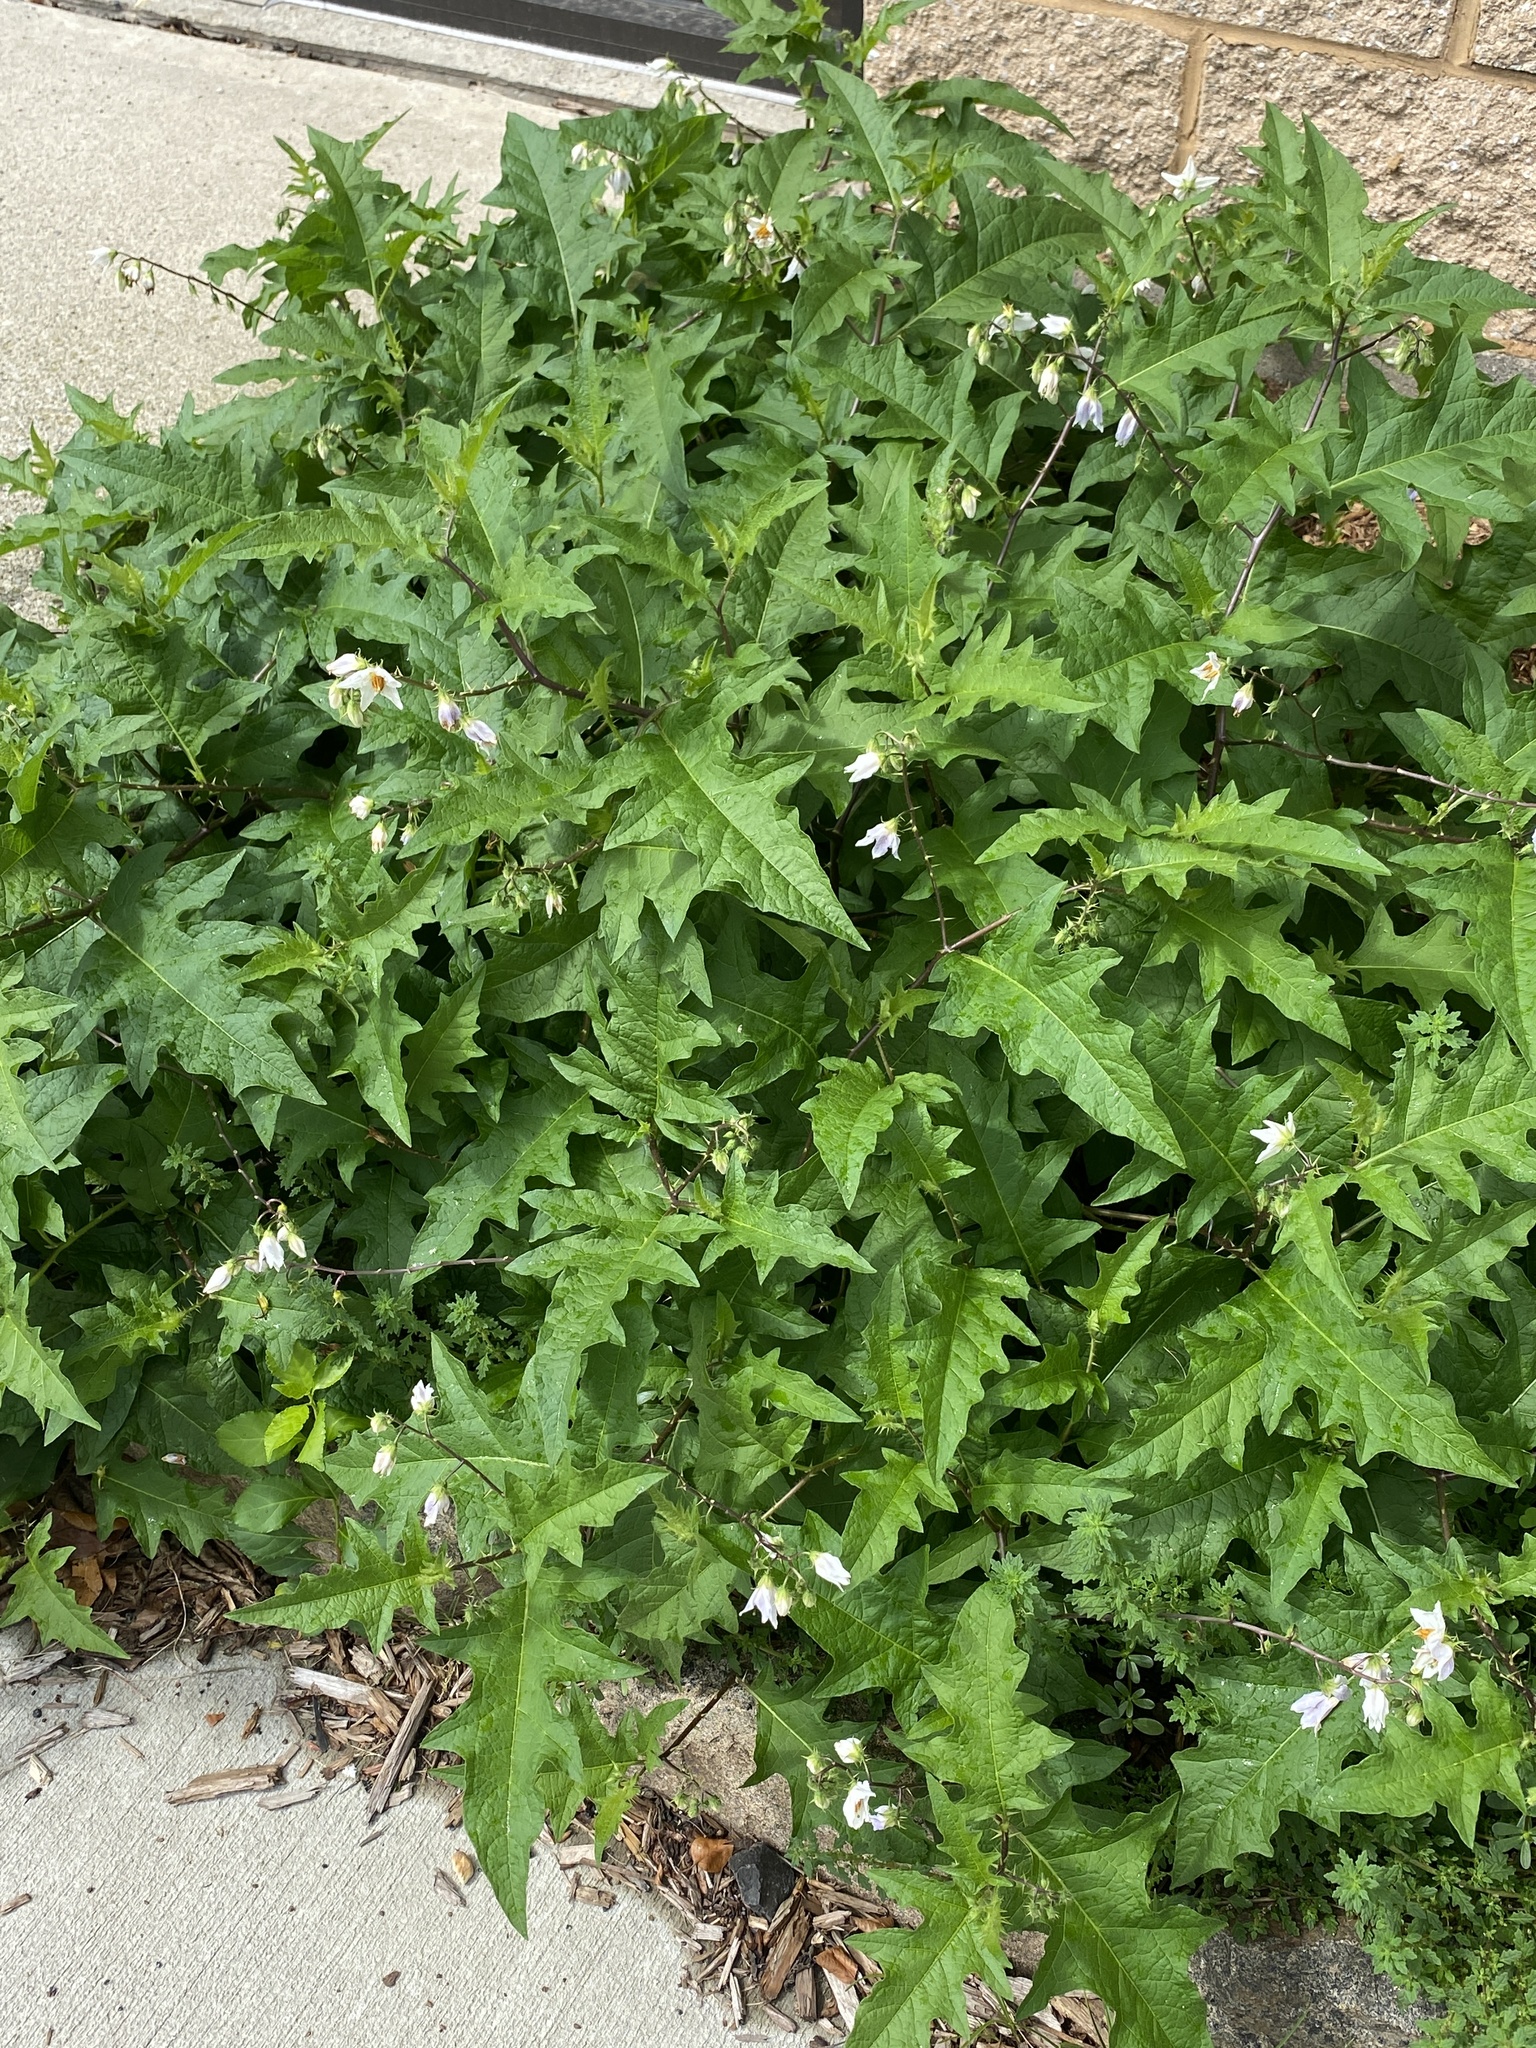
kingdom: Plantae
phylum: Tracheophyta
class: Magnoliopsida
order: Solanales
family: Solanaceae
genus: Solanum
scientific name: Solanum carolinense
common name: Horse-nettle
